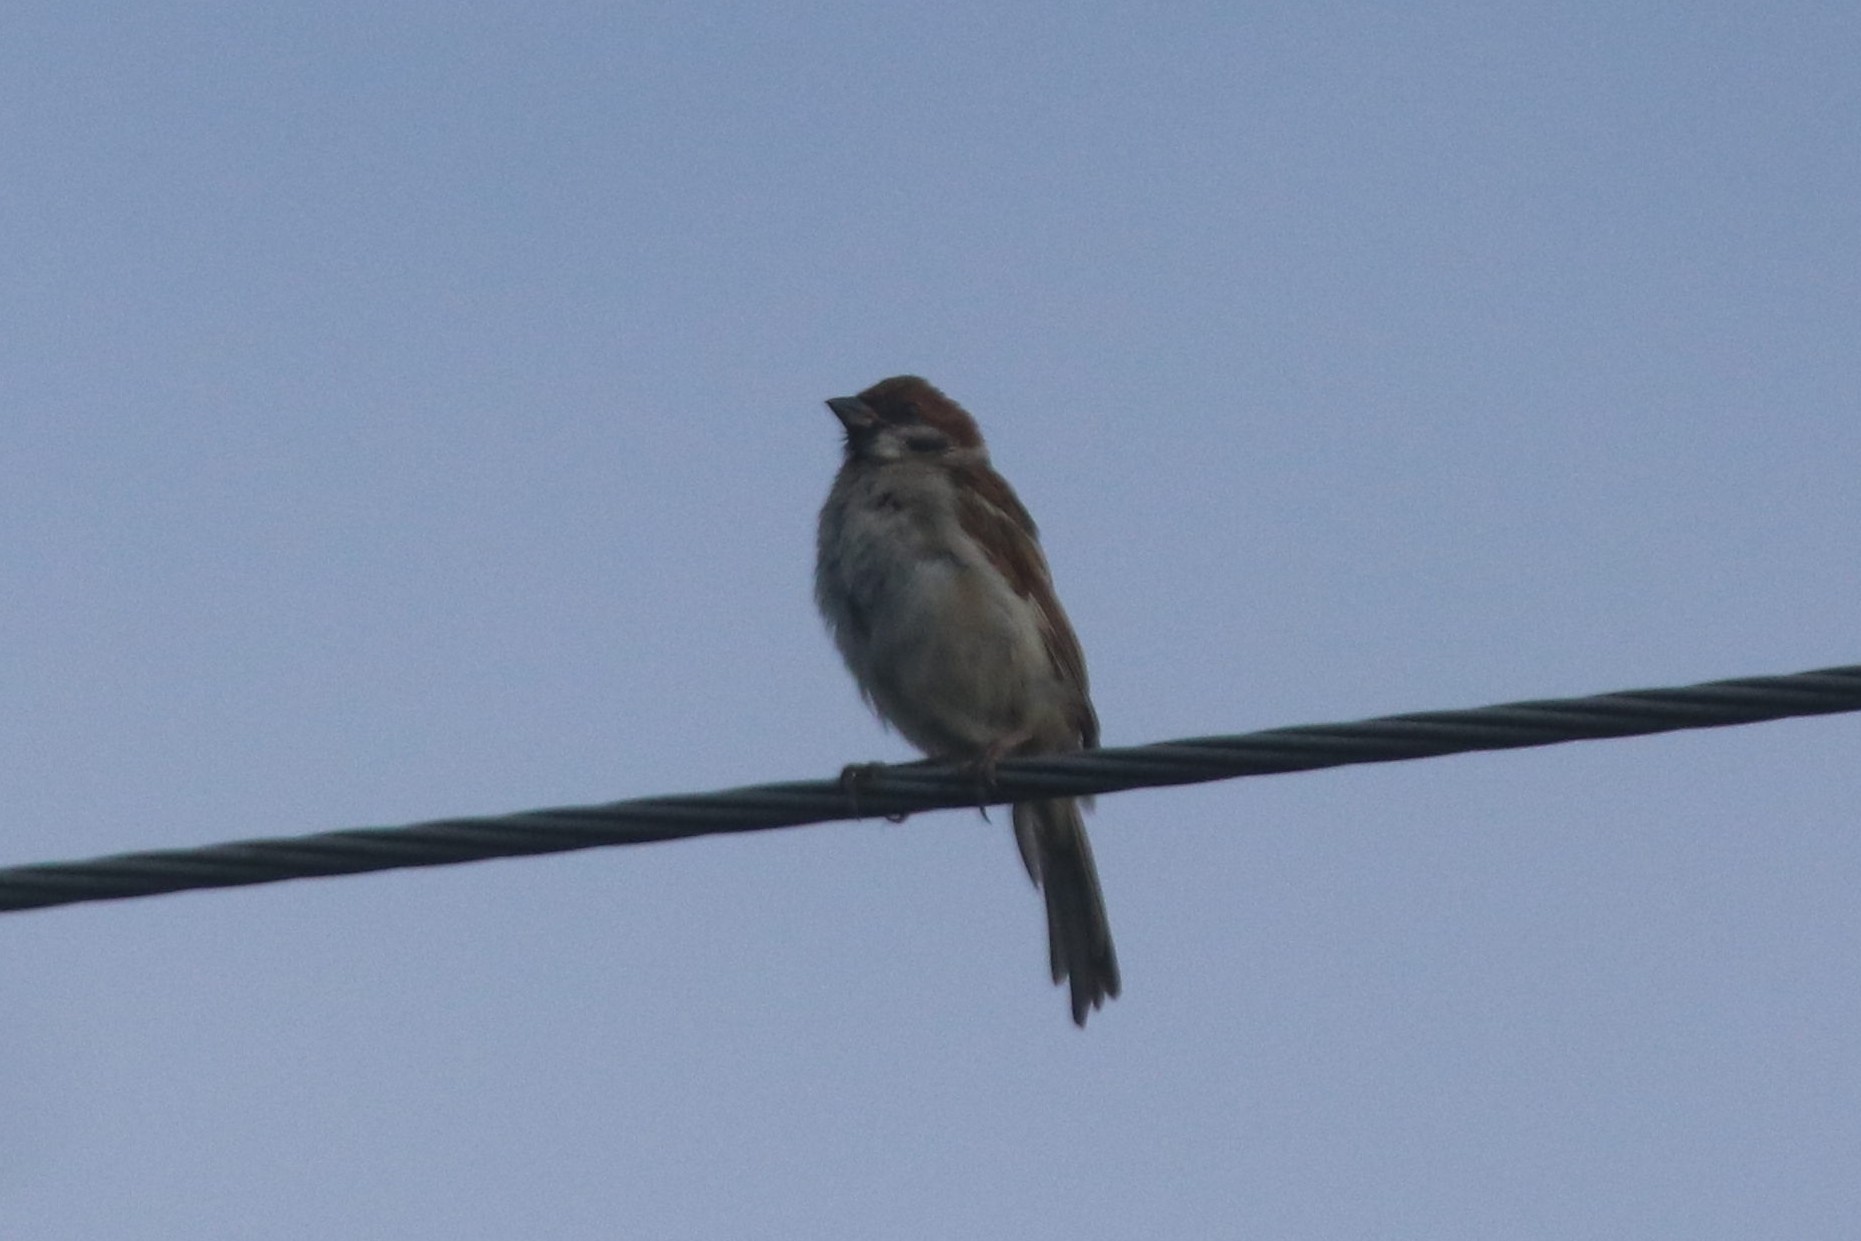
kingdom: Animalia
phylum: Chordata
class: Aves
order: Passeriformes
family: Passeridae
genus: Passer
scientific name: Passer montanus
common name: Eurasian tree sparrow
